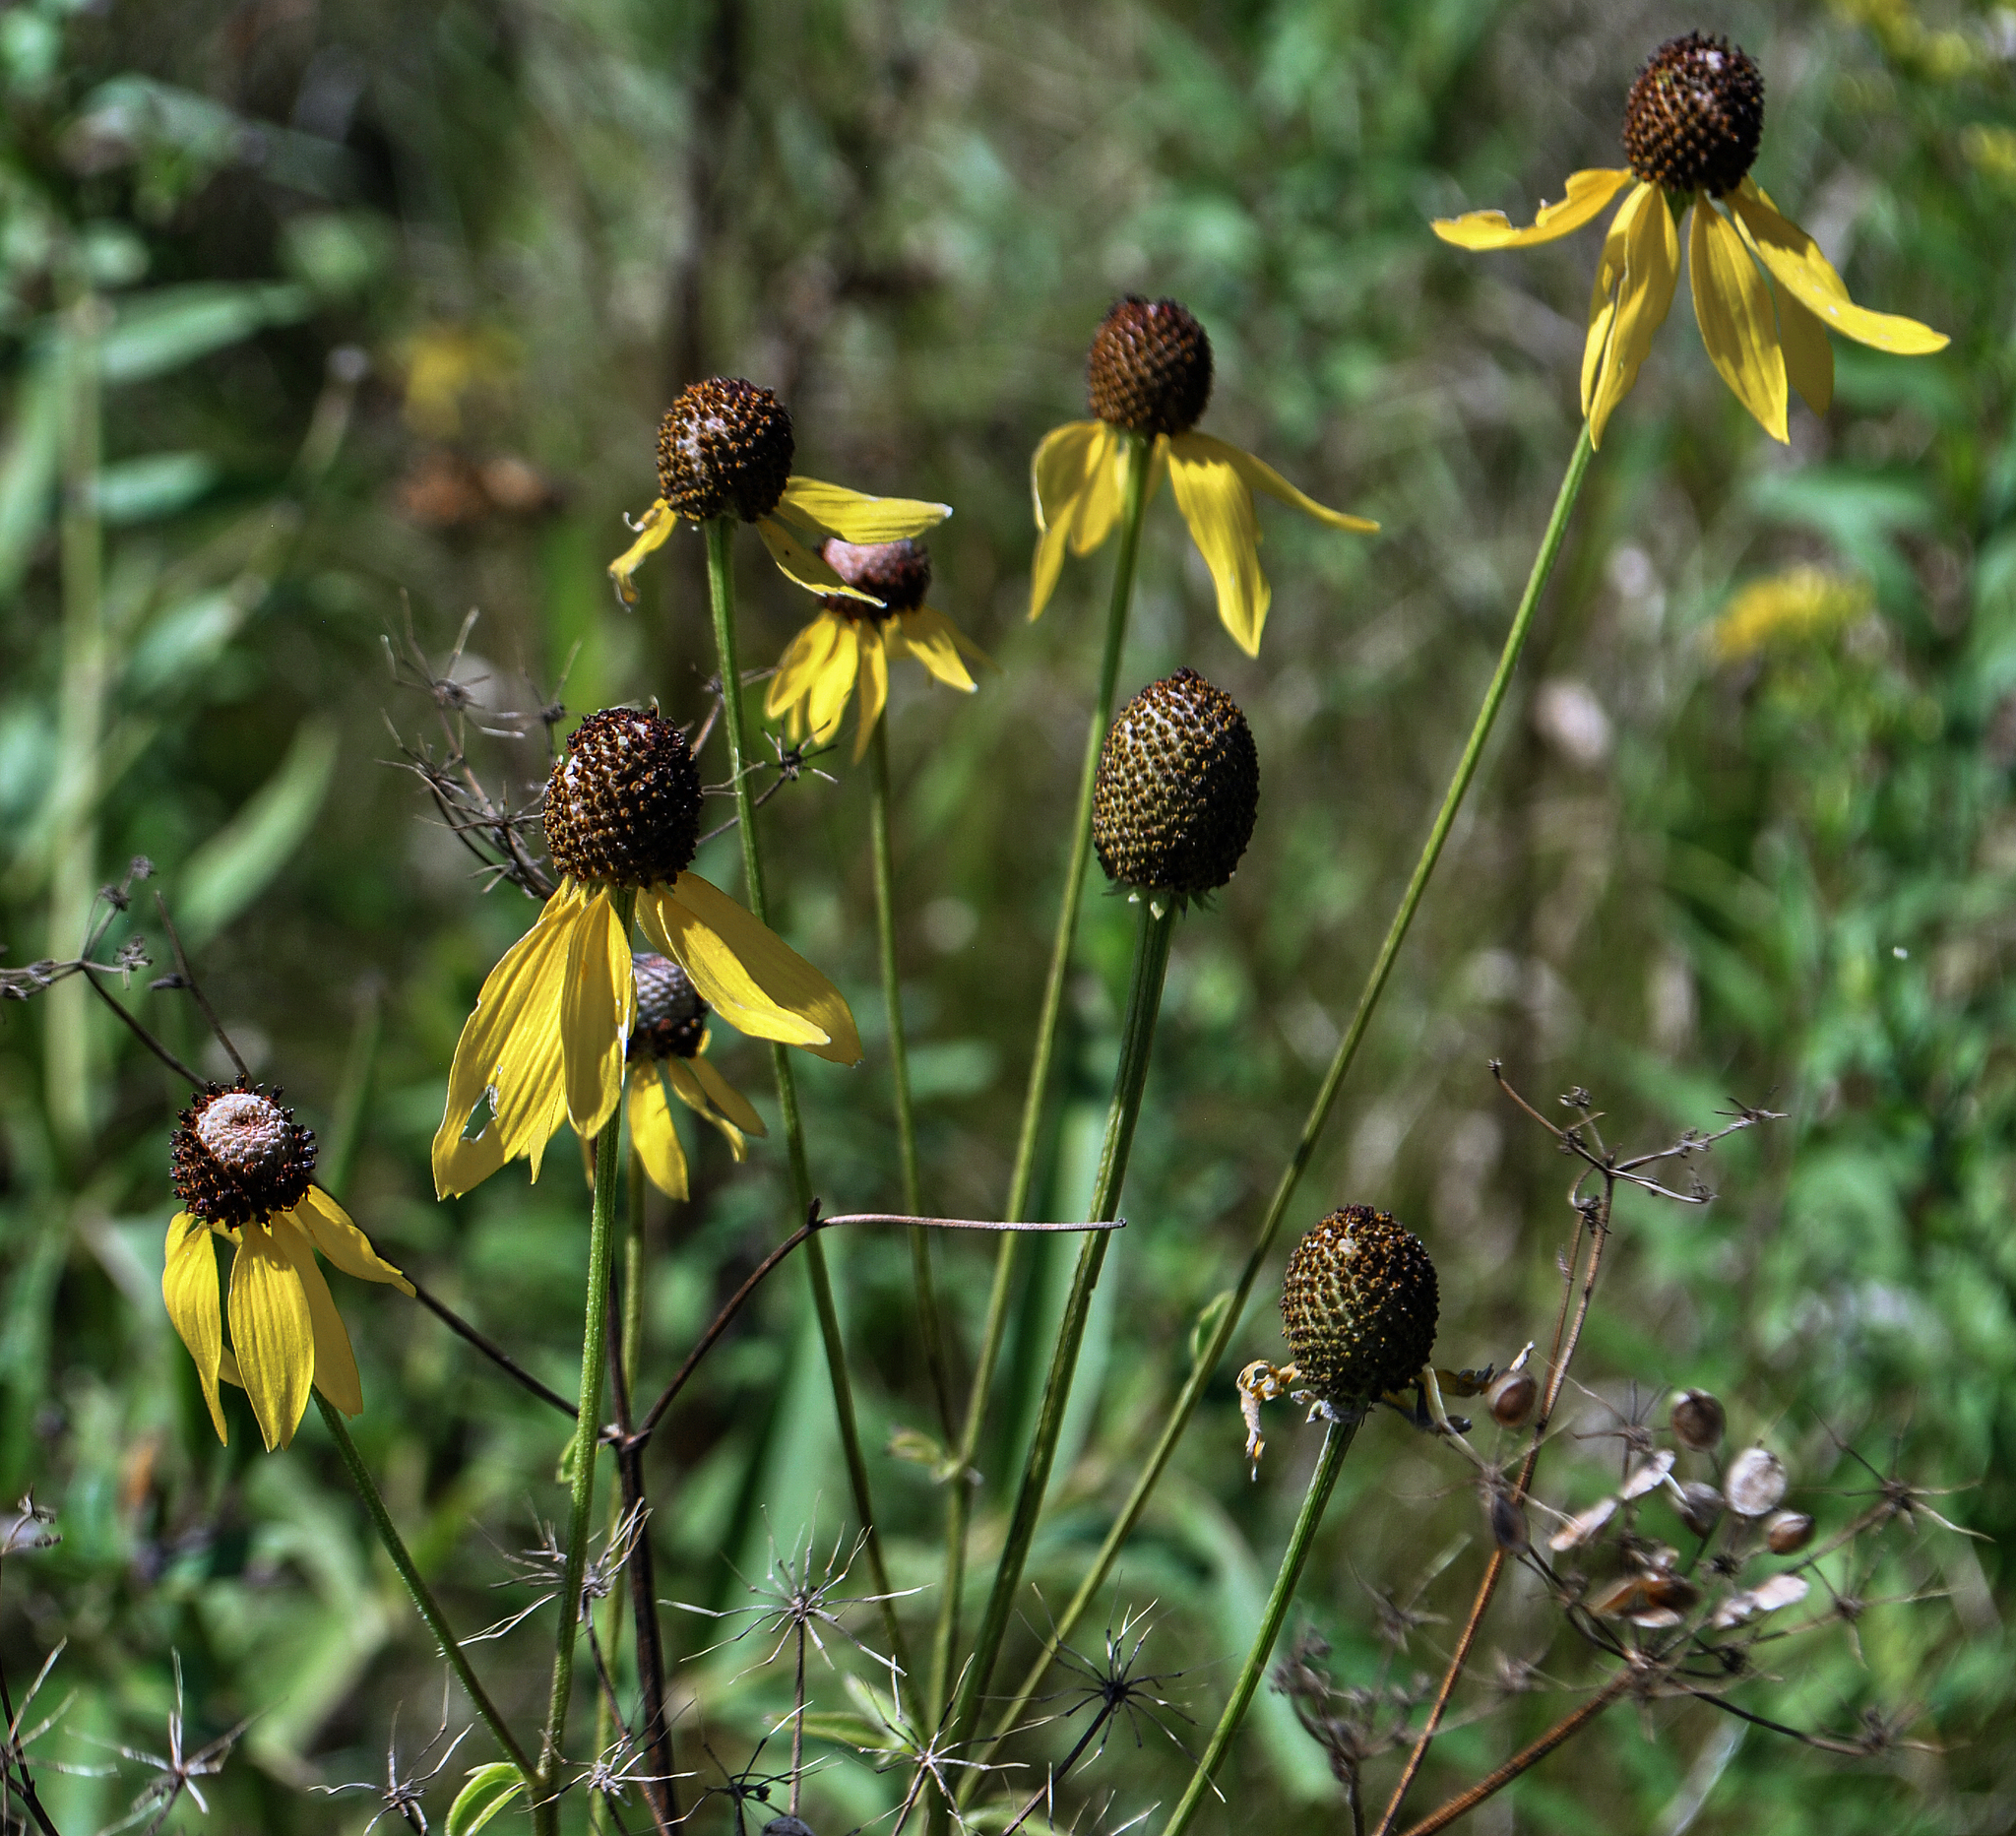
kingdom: Plantae
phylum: Tracheophyta
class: Magnoliopsida
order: Asterales
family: Asteraceae
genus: Ratibida
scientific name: Ratibida pinnata
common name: Drooping prairie-coneflower
